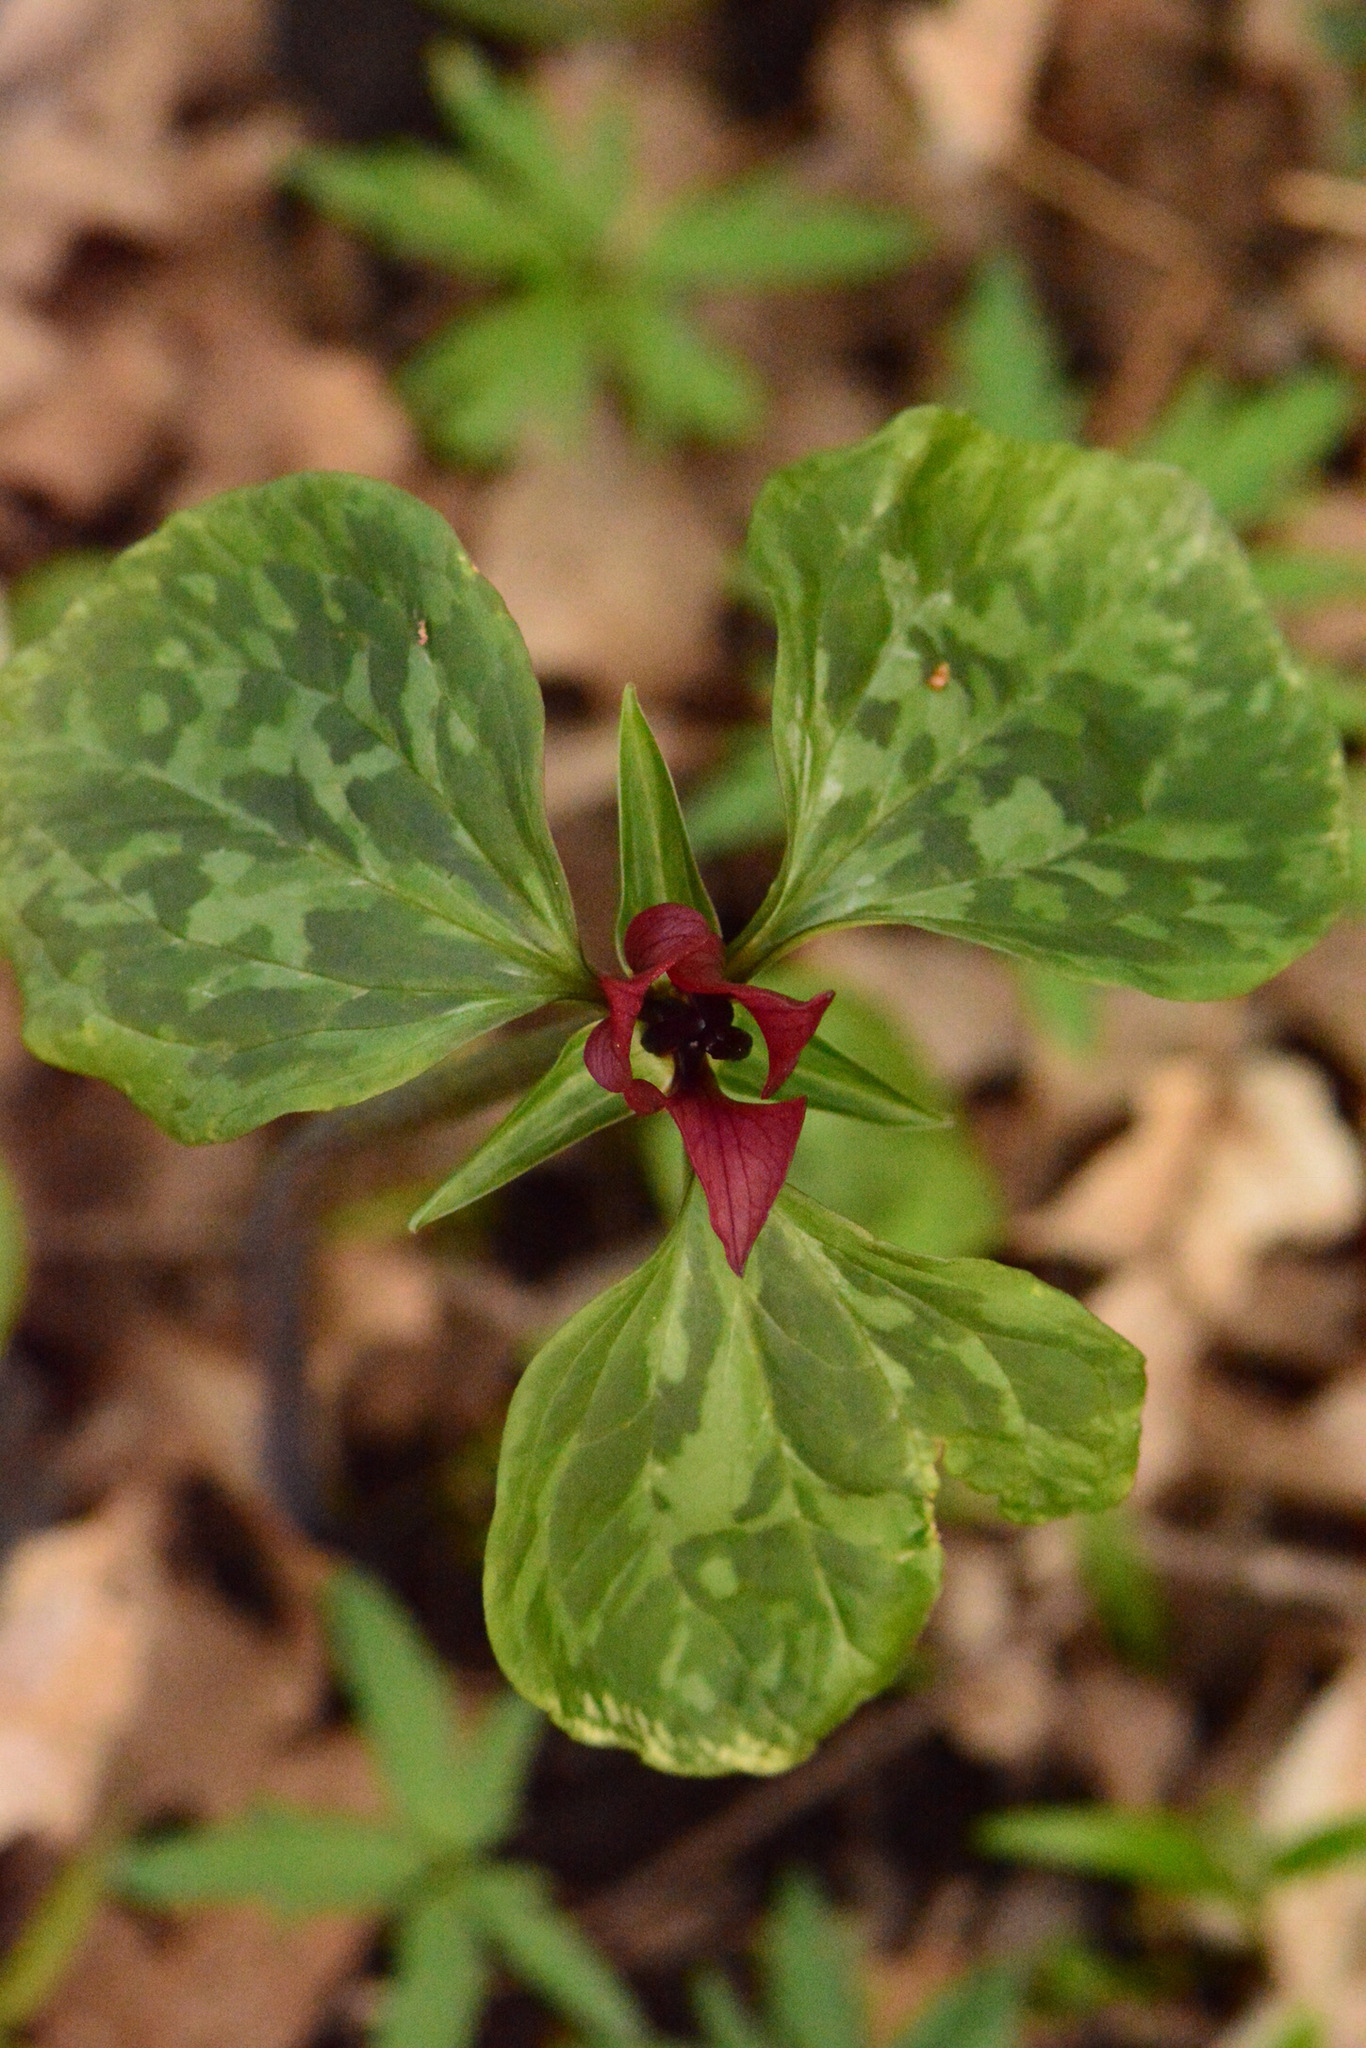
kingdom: Plantae
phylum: Tracheophyta
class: Liliopsida
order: Liliales
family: Melanthiaceae
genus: Trillium
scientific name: Trillium recurvatum
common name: Bloody butcher
